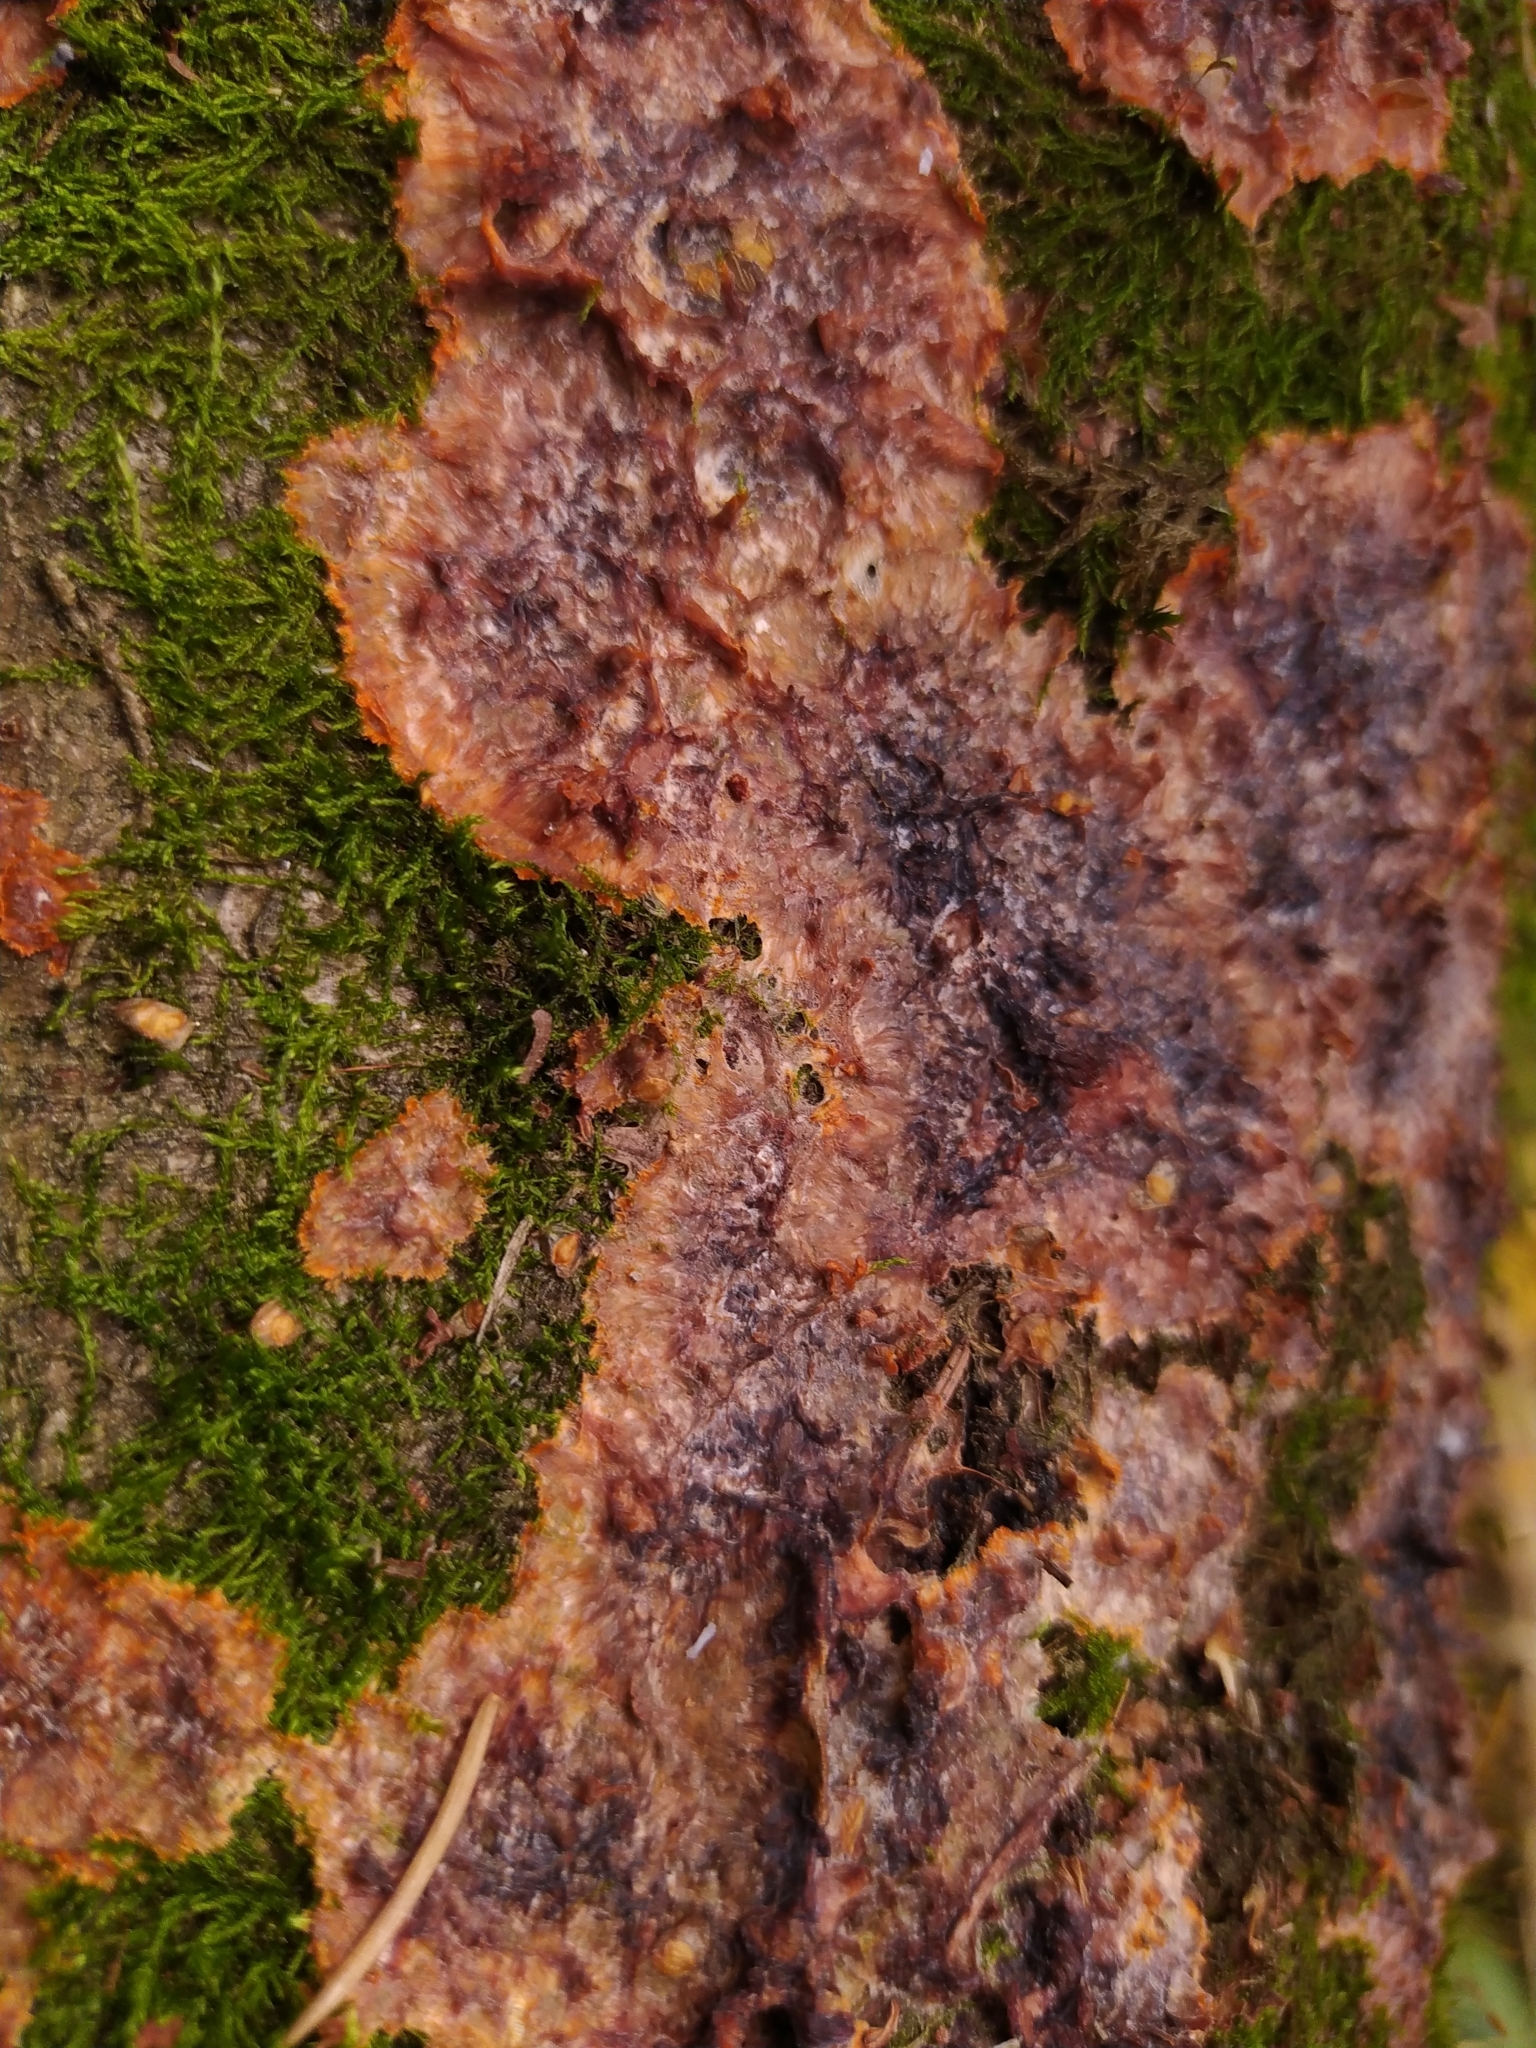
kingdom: Fungi
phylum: Basidiomycota
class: Agaricomycetes
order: Polyporales
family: Meruliaceae
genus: Phlebia
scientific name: Phlebia radiata
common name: Wrinkled crust
